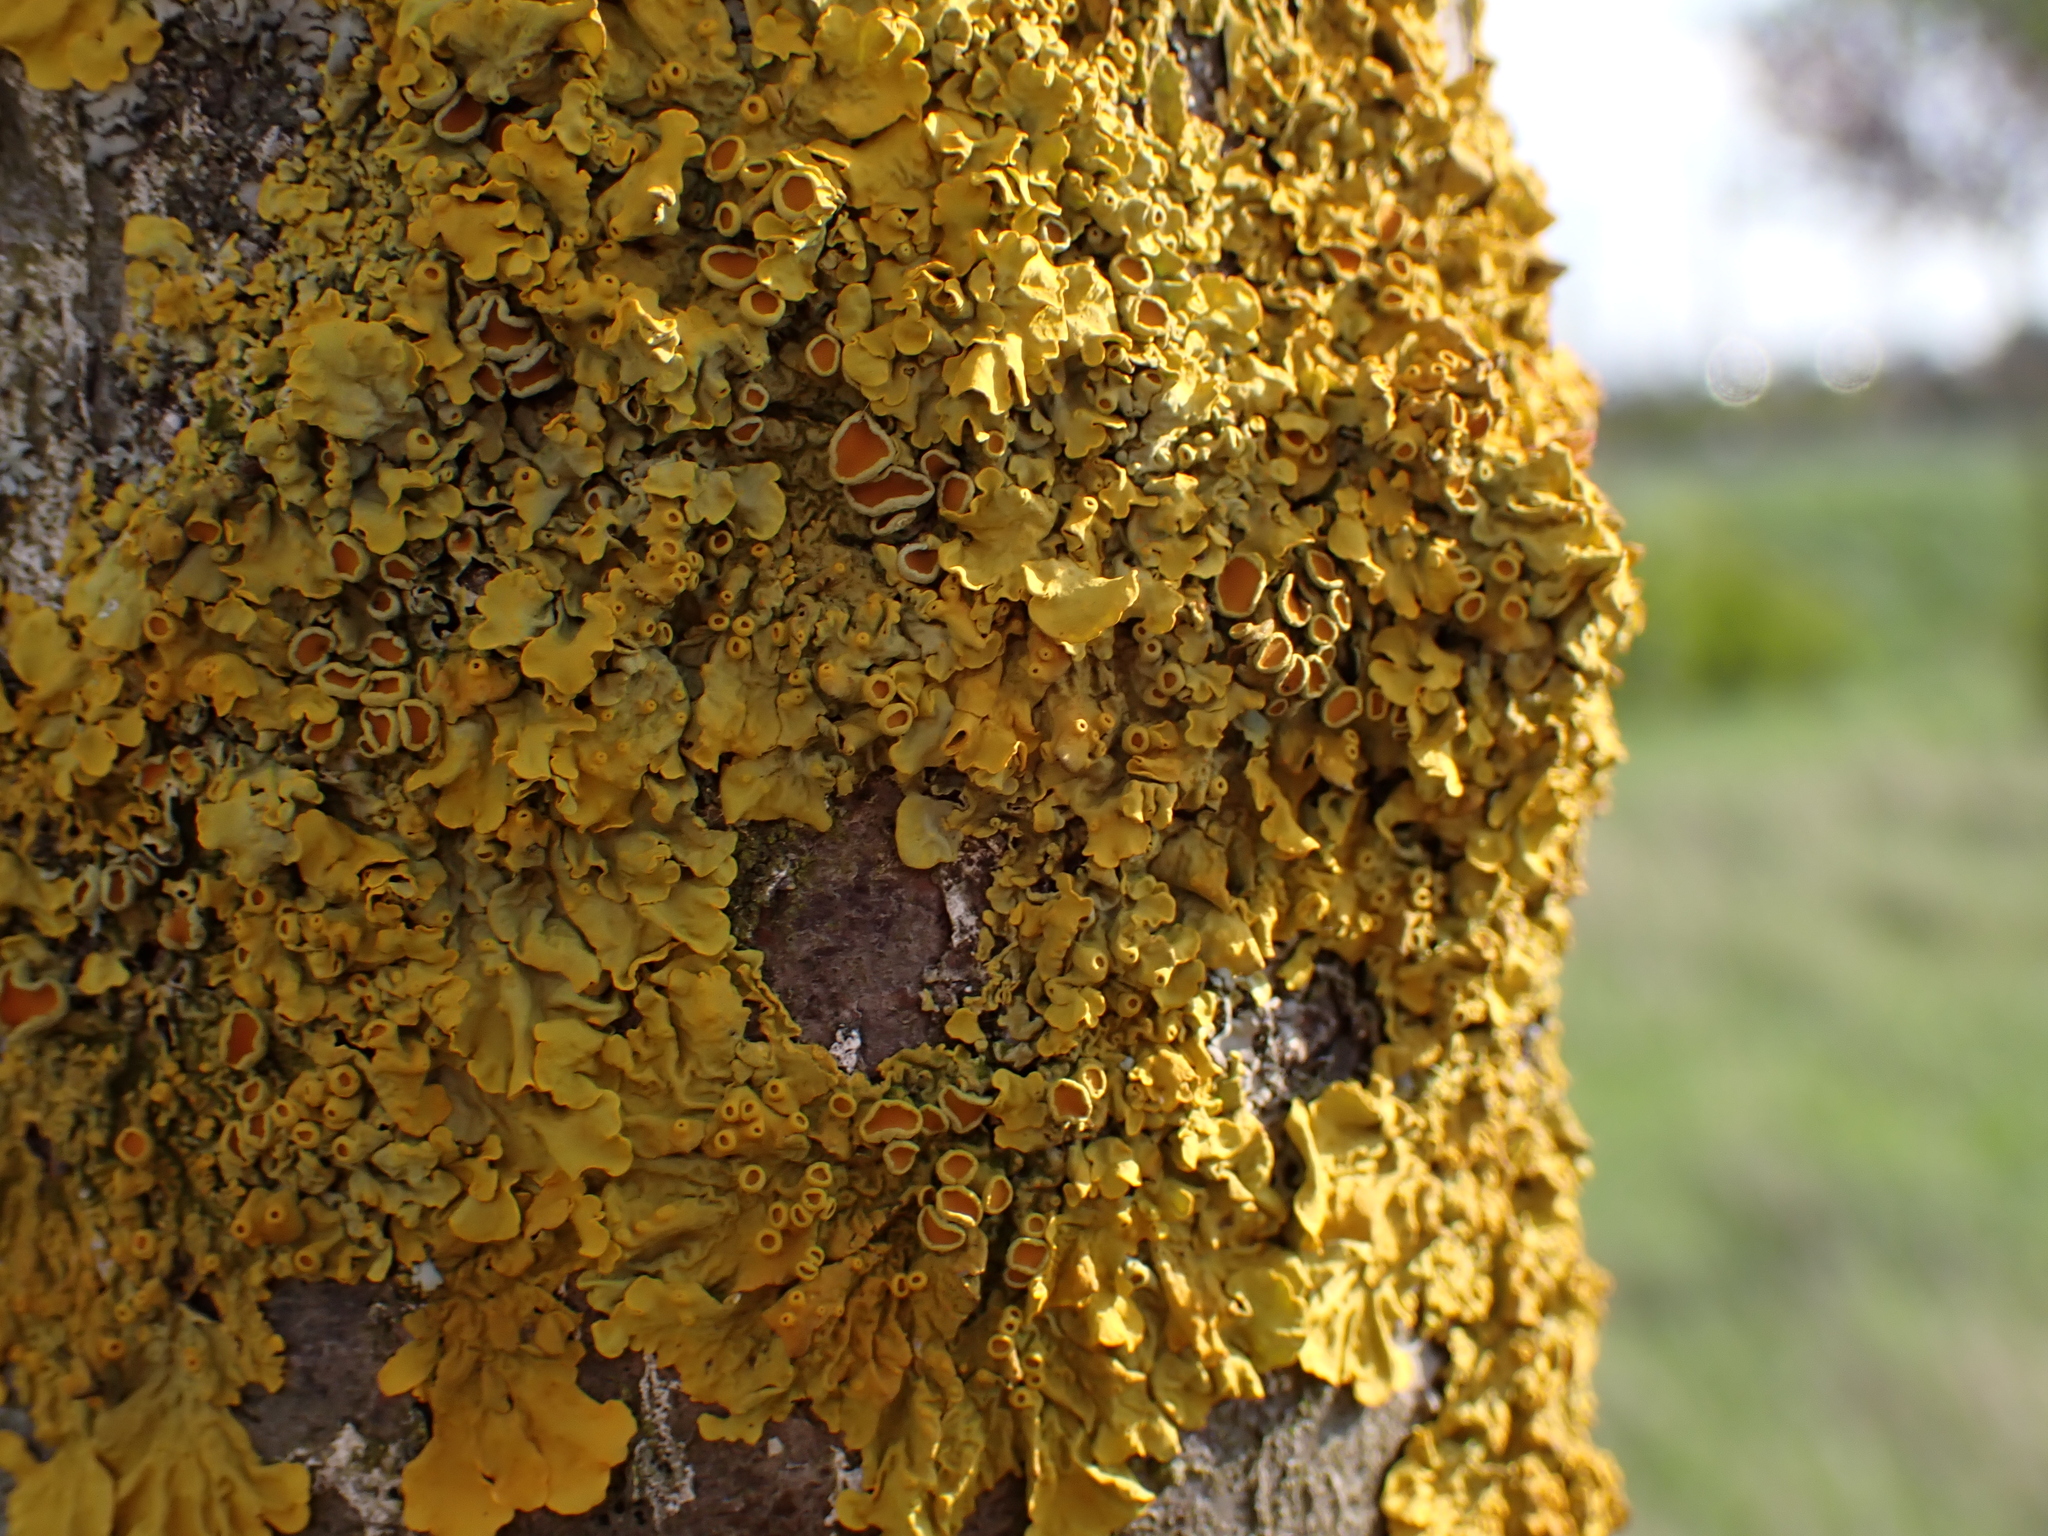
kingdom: Fungi
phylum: Ascomycota
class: Lecanoromycetes
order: Teloschistales
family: Teloschistaceae
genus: Xanthoria
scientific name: Xanthoria parietina
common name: Common orange lichen
